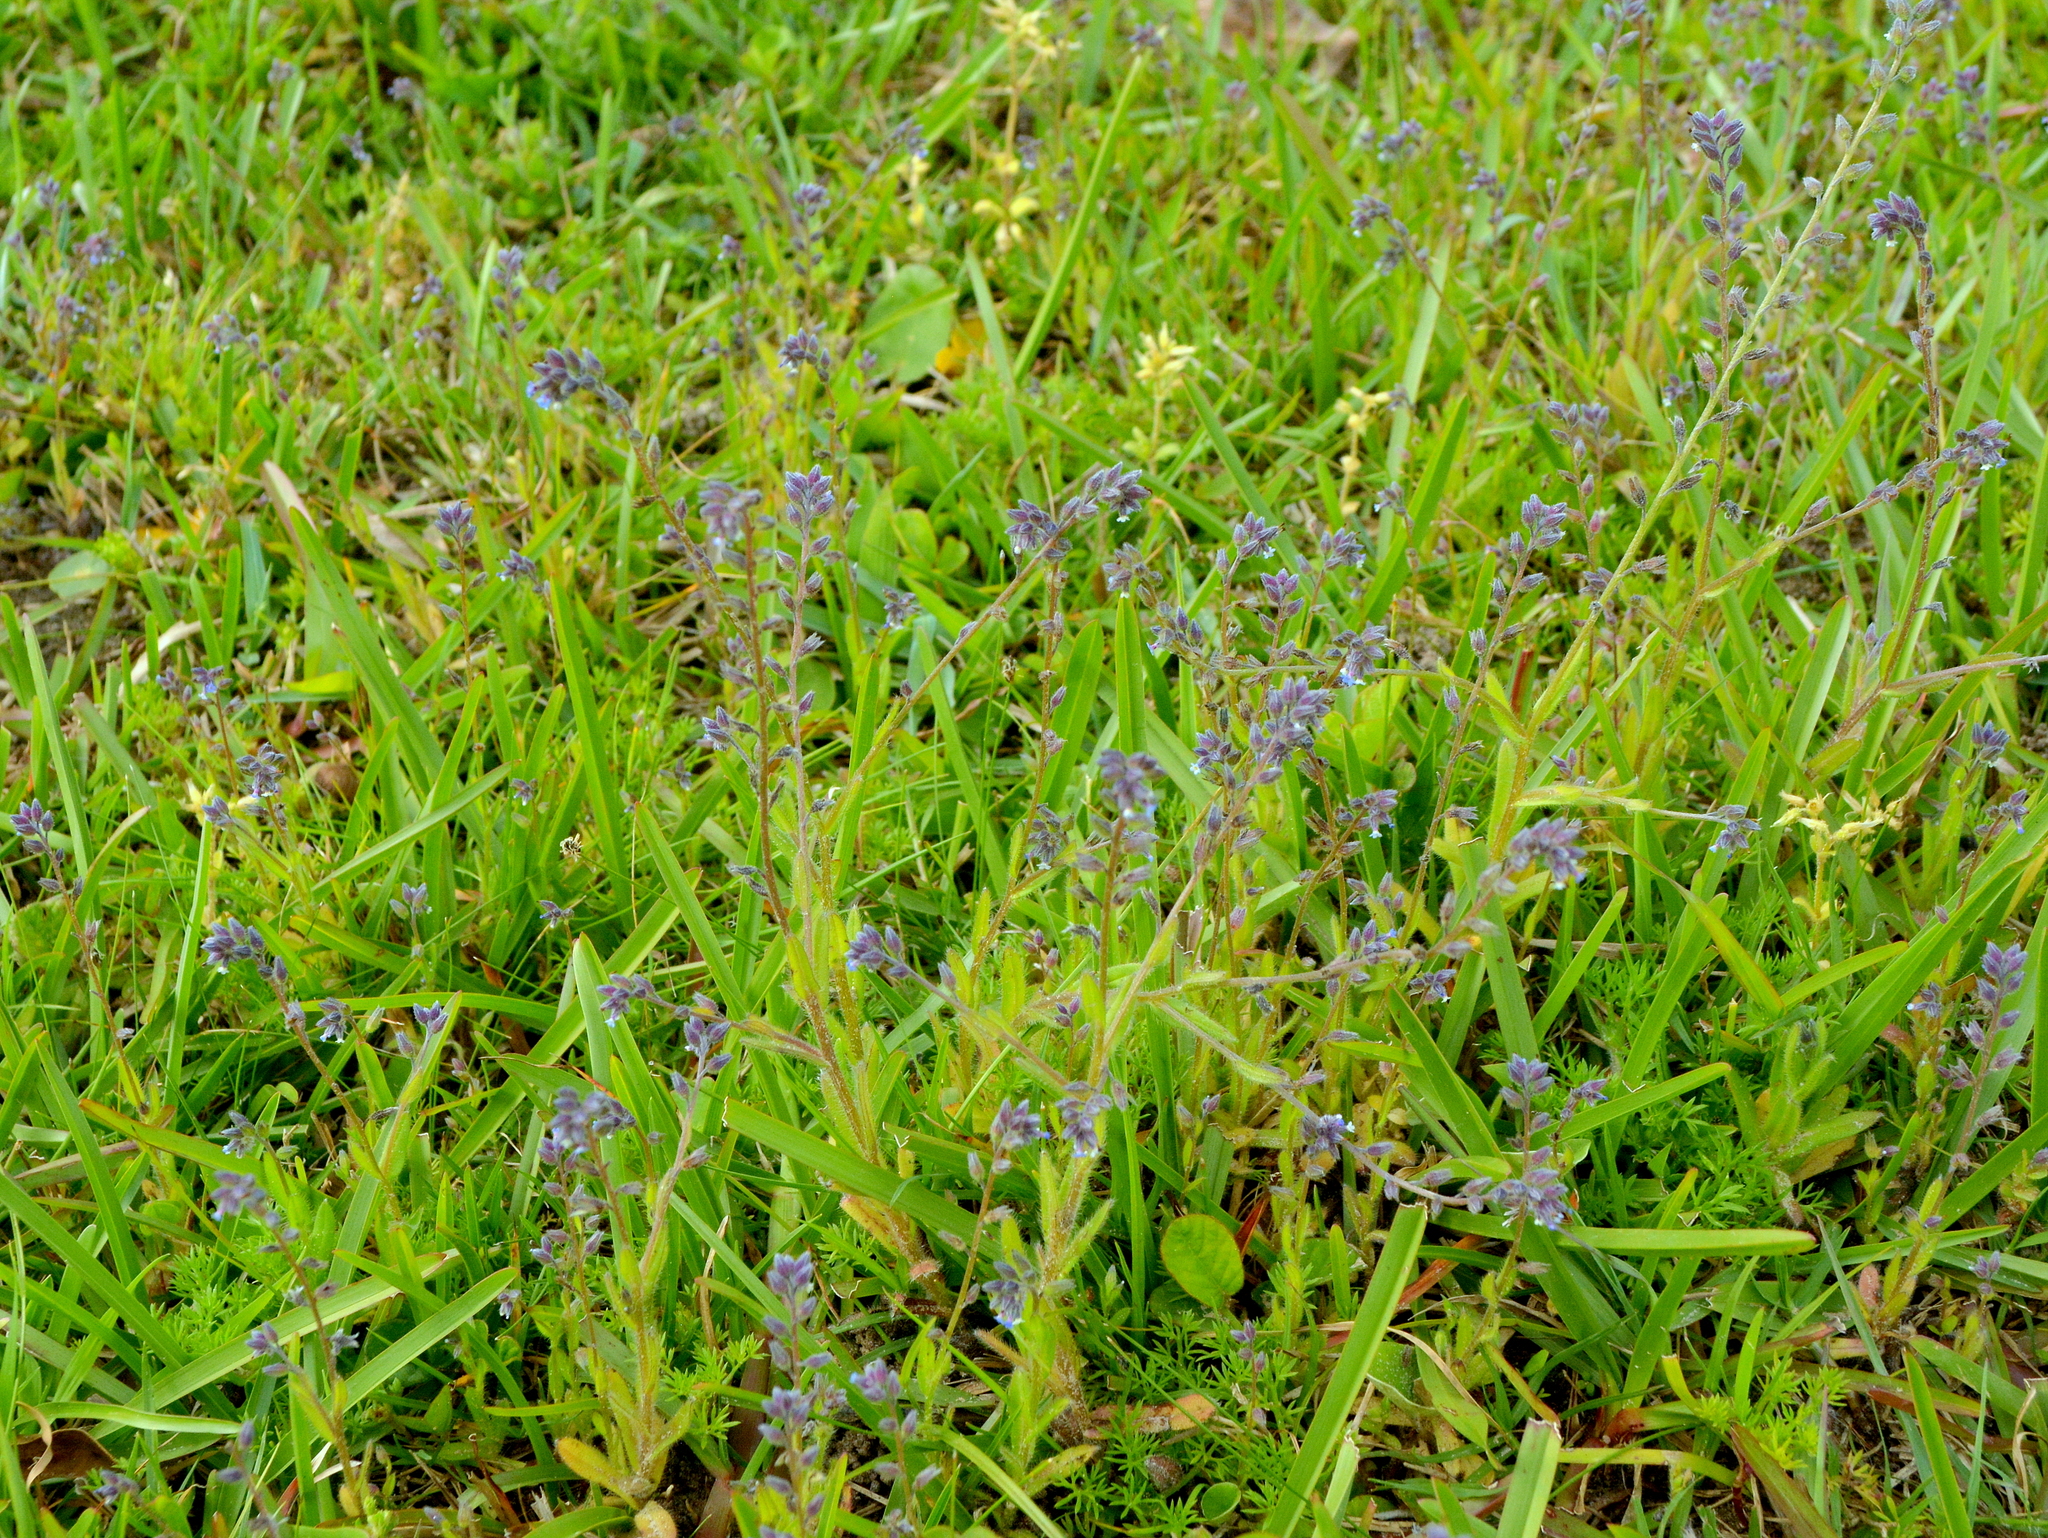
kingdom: Plantae
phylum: Tracheophyta
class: Magnoliopsida
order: Boraginales
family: Boraginaceae
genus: Myosotis
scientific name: Myosotis discolor
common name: Changing forget-me-not
